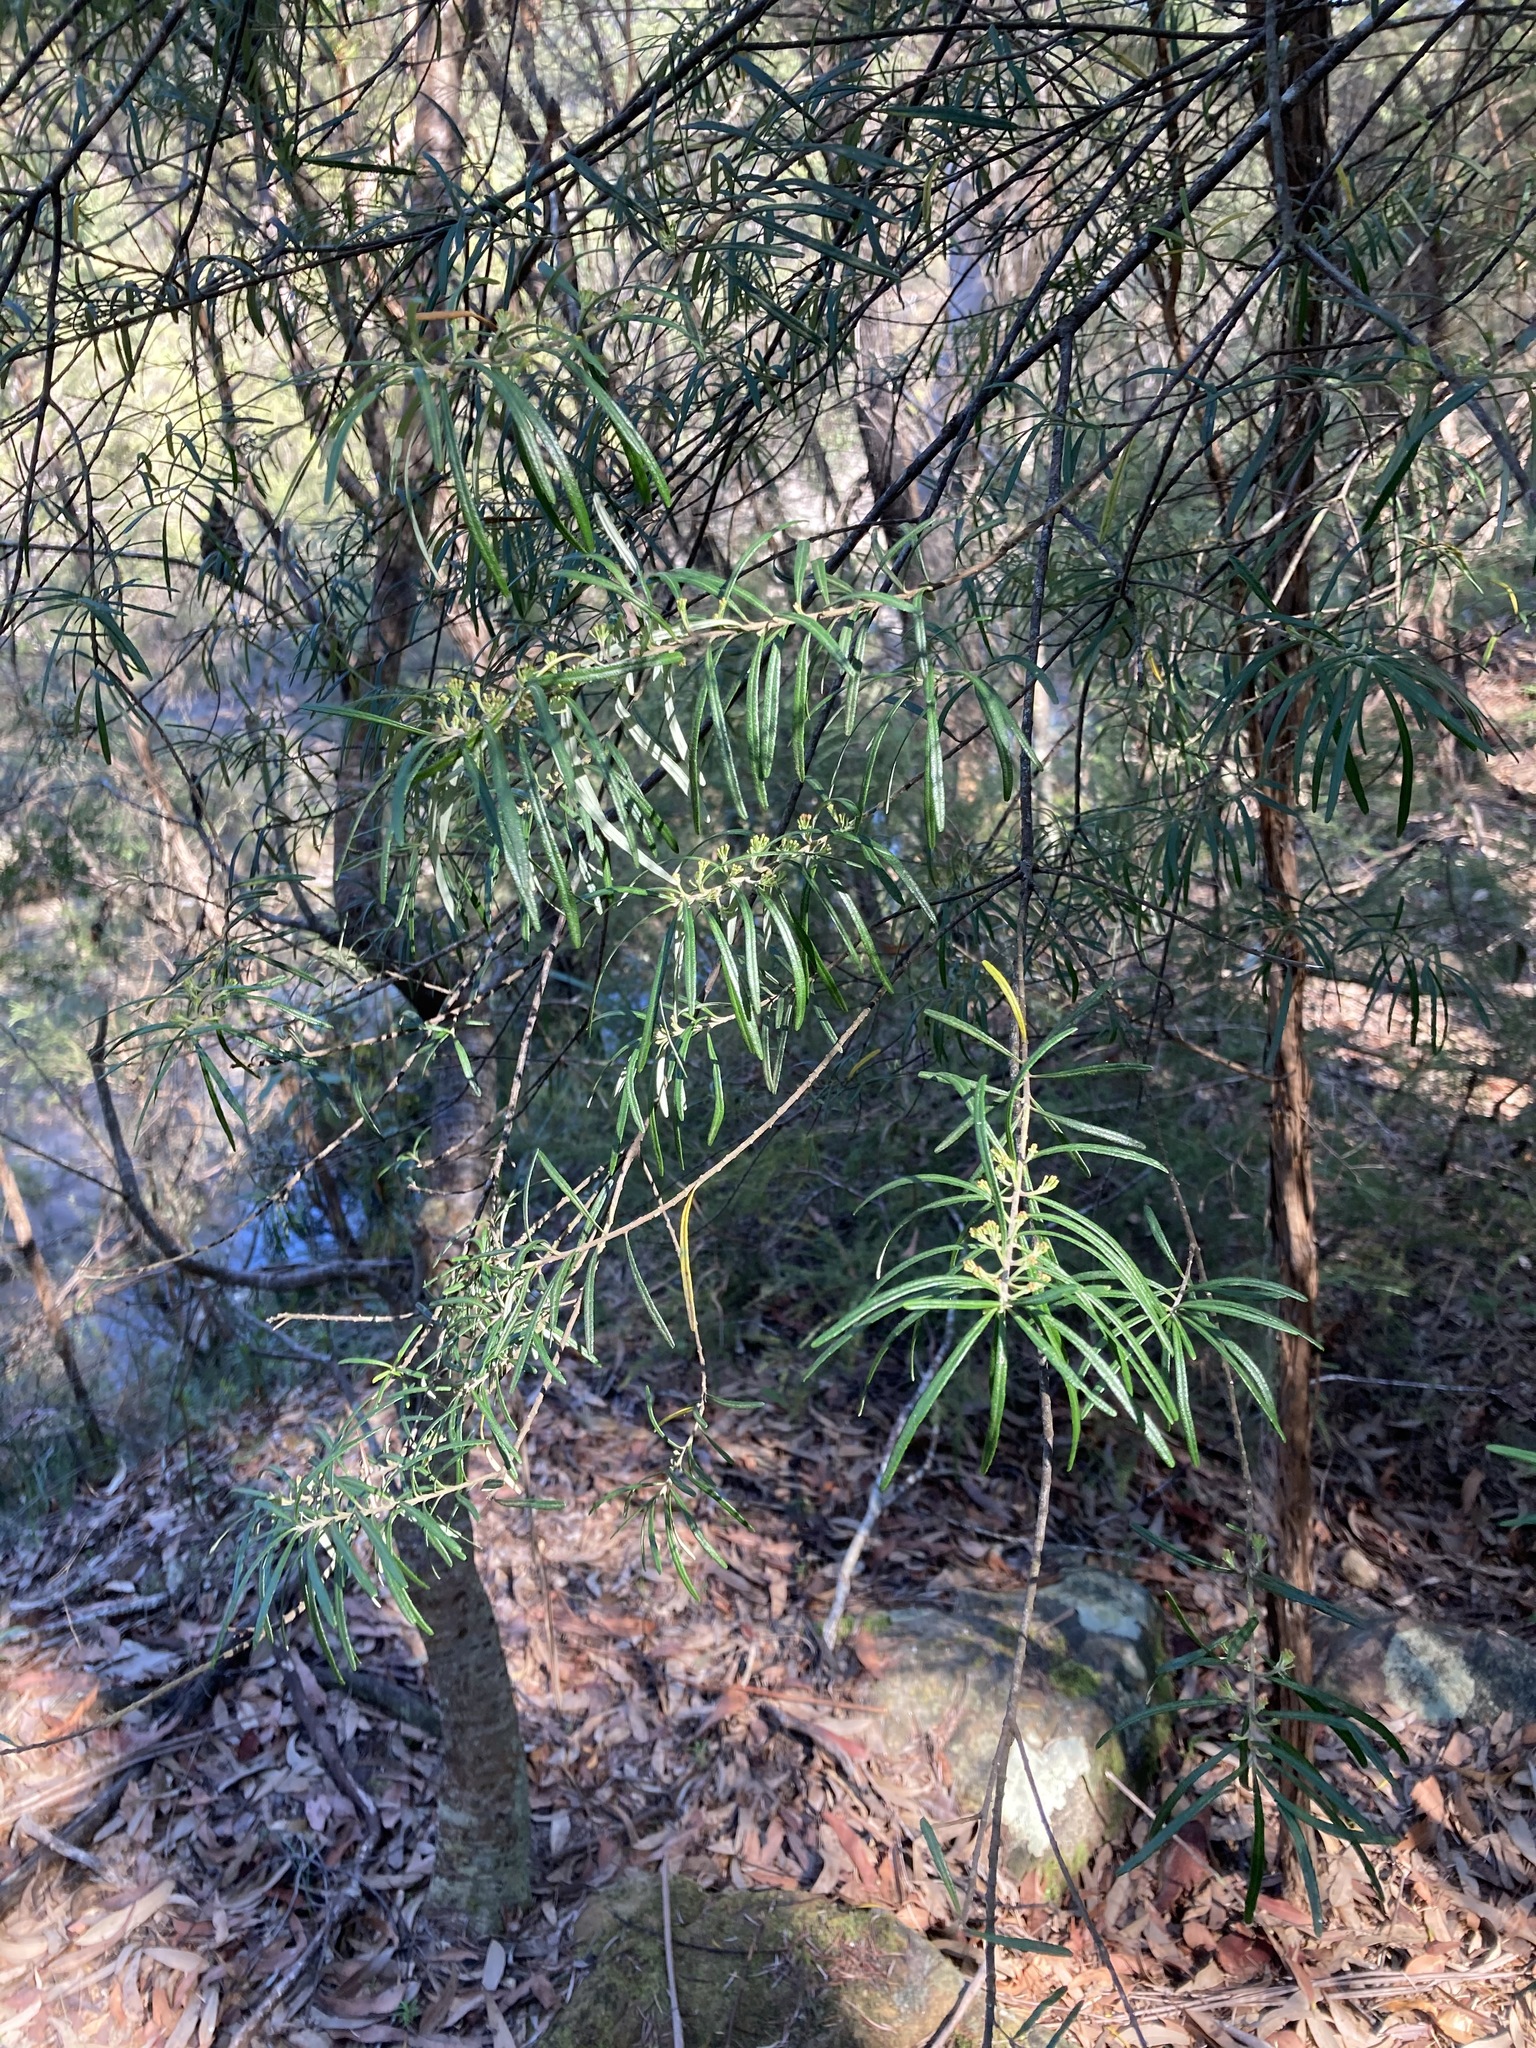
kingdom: Plantae
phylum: Tracheophyta
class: Magnoliopsida
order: Sapindales
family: Rutaceae
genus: Leionema
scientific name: Leionema dentatum
